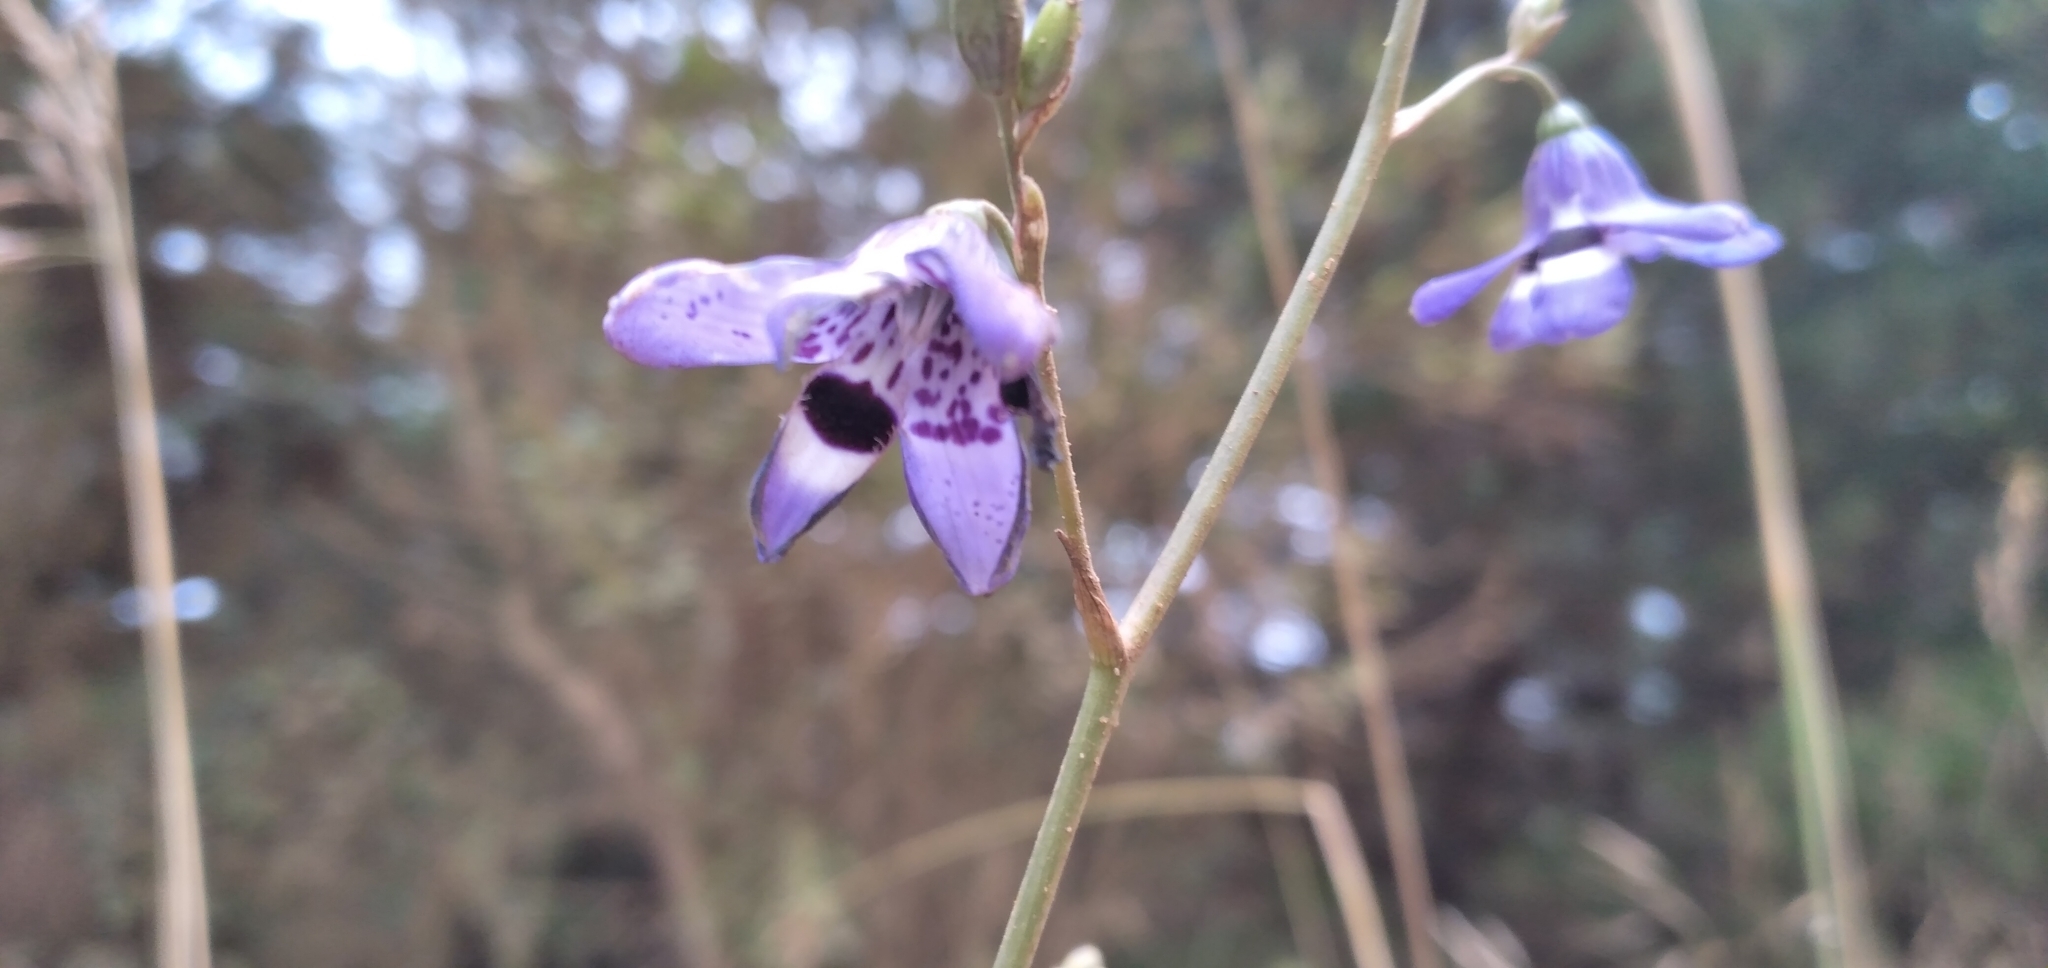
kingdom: Plantae
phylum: Tracheophyta
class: Liliopsida
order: Asparagales
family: Tecophilaeaceae
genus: Conanthera
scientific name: Conanthera trimaculata
